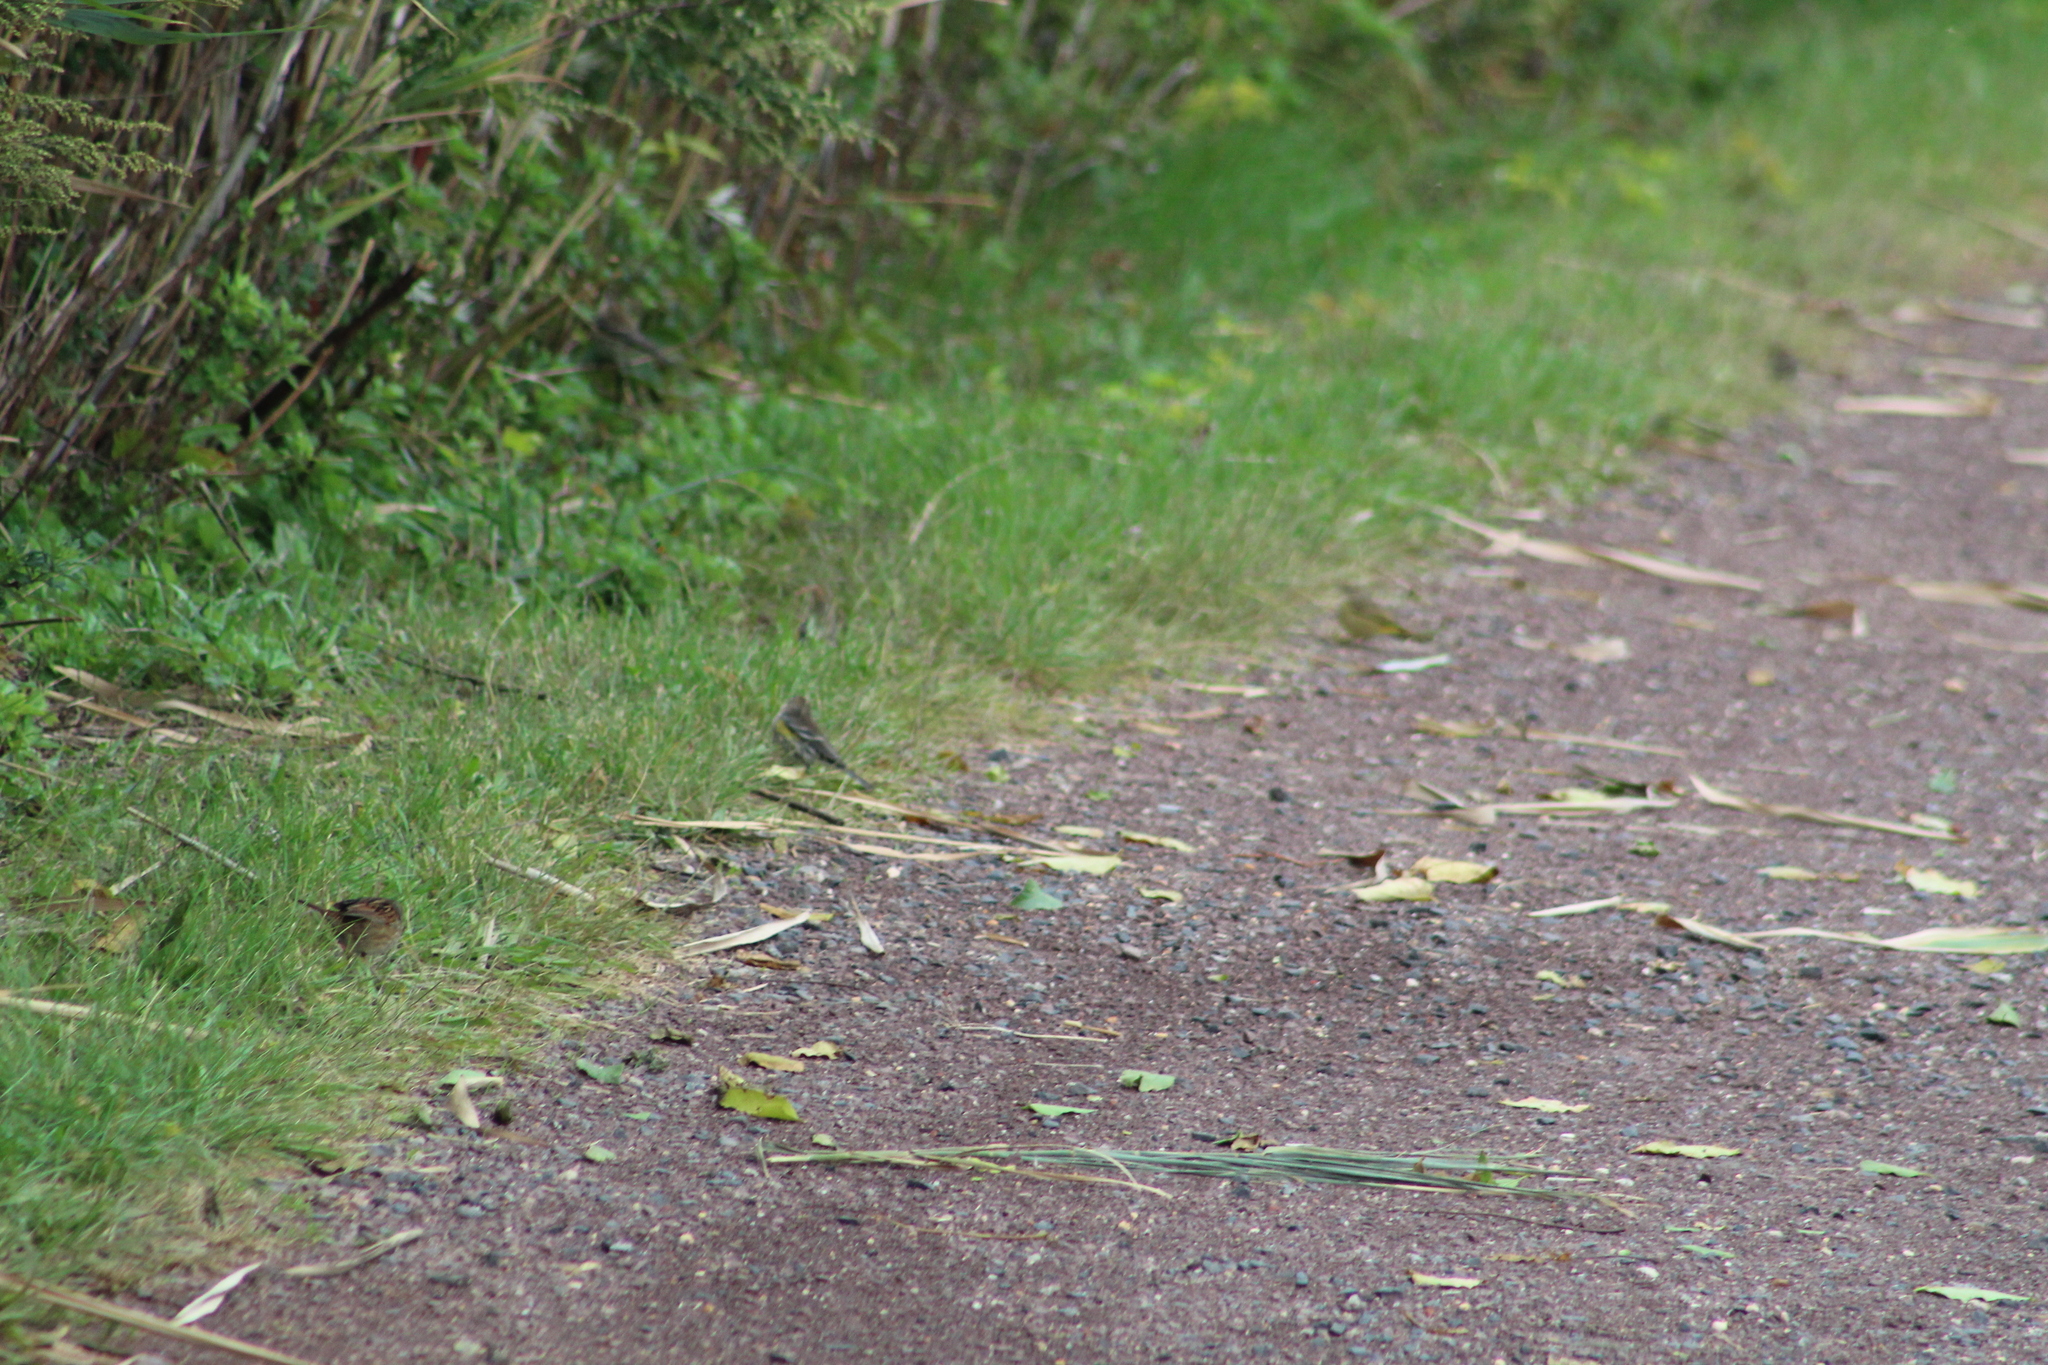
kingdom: Animalia
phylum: Chordata
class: Aves
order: Passeriformes
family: Parulidae
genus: Setophaga
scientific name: Setophaga coronata
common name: Myrtle warbler
